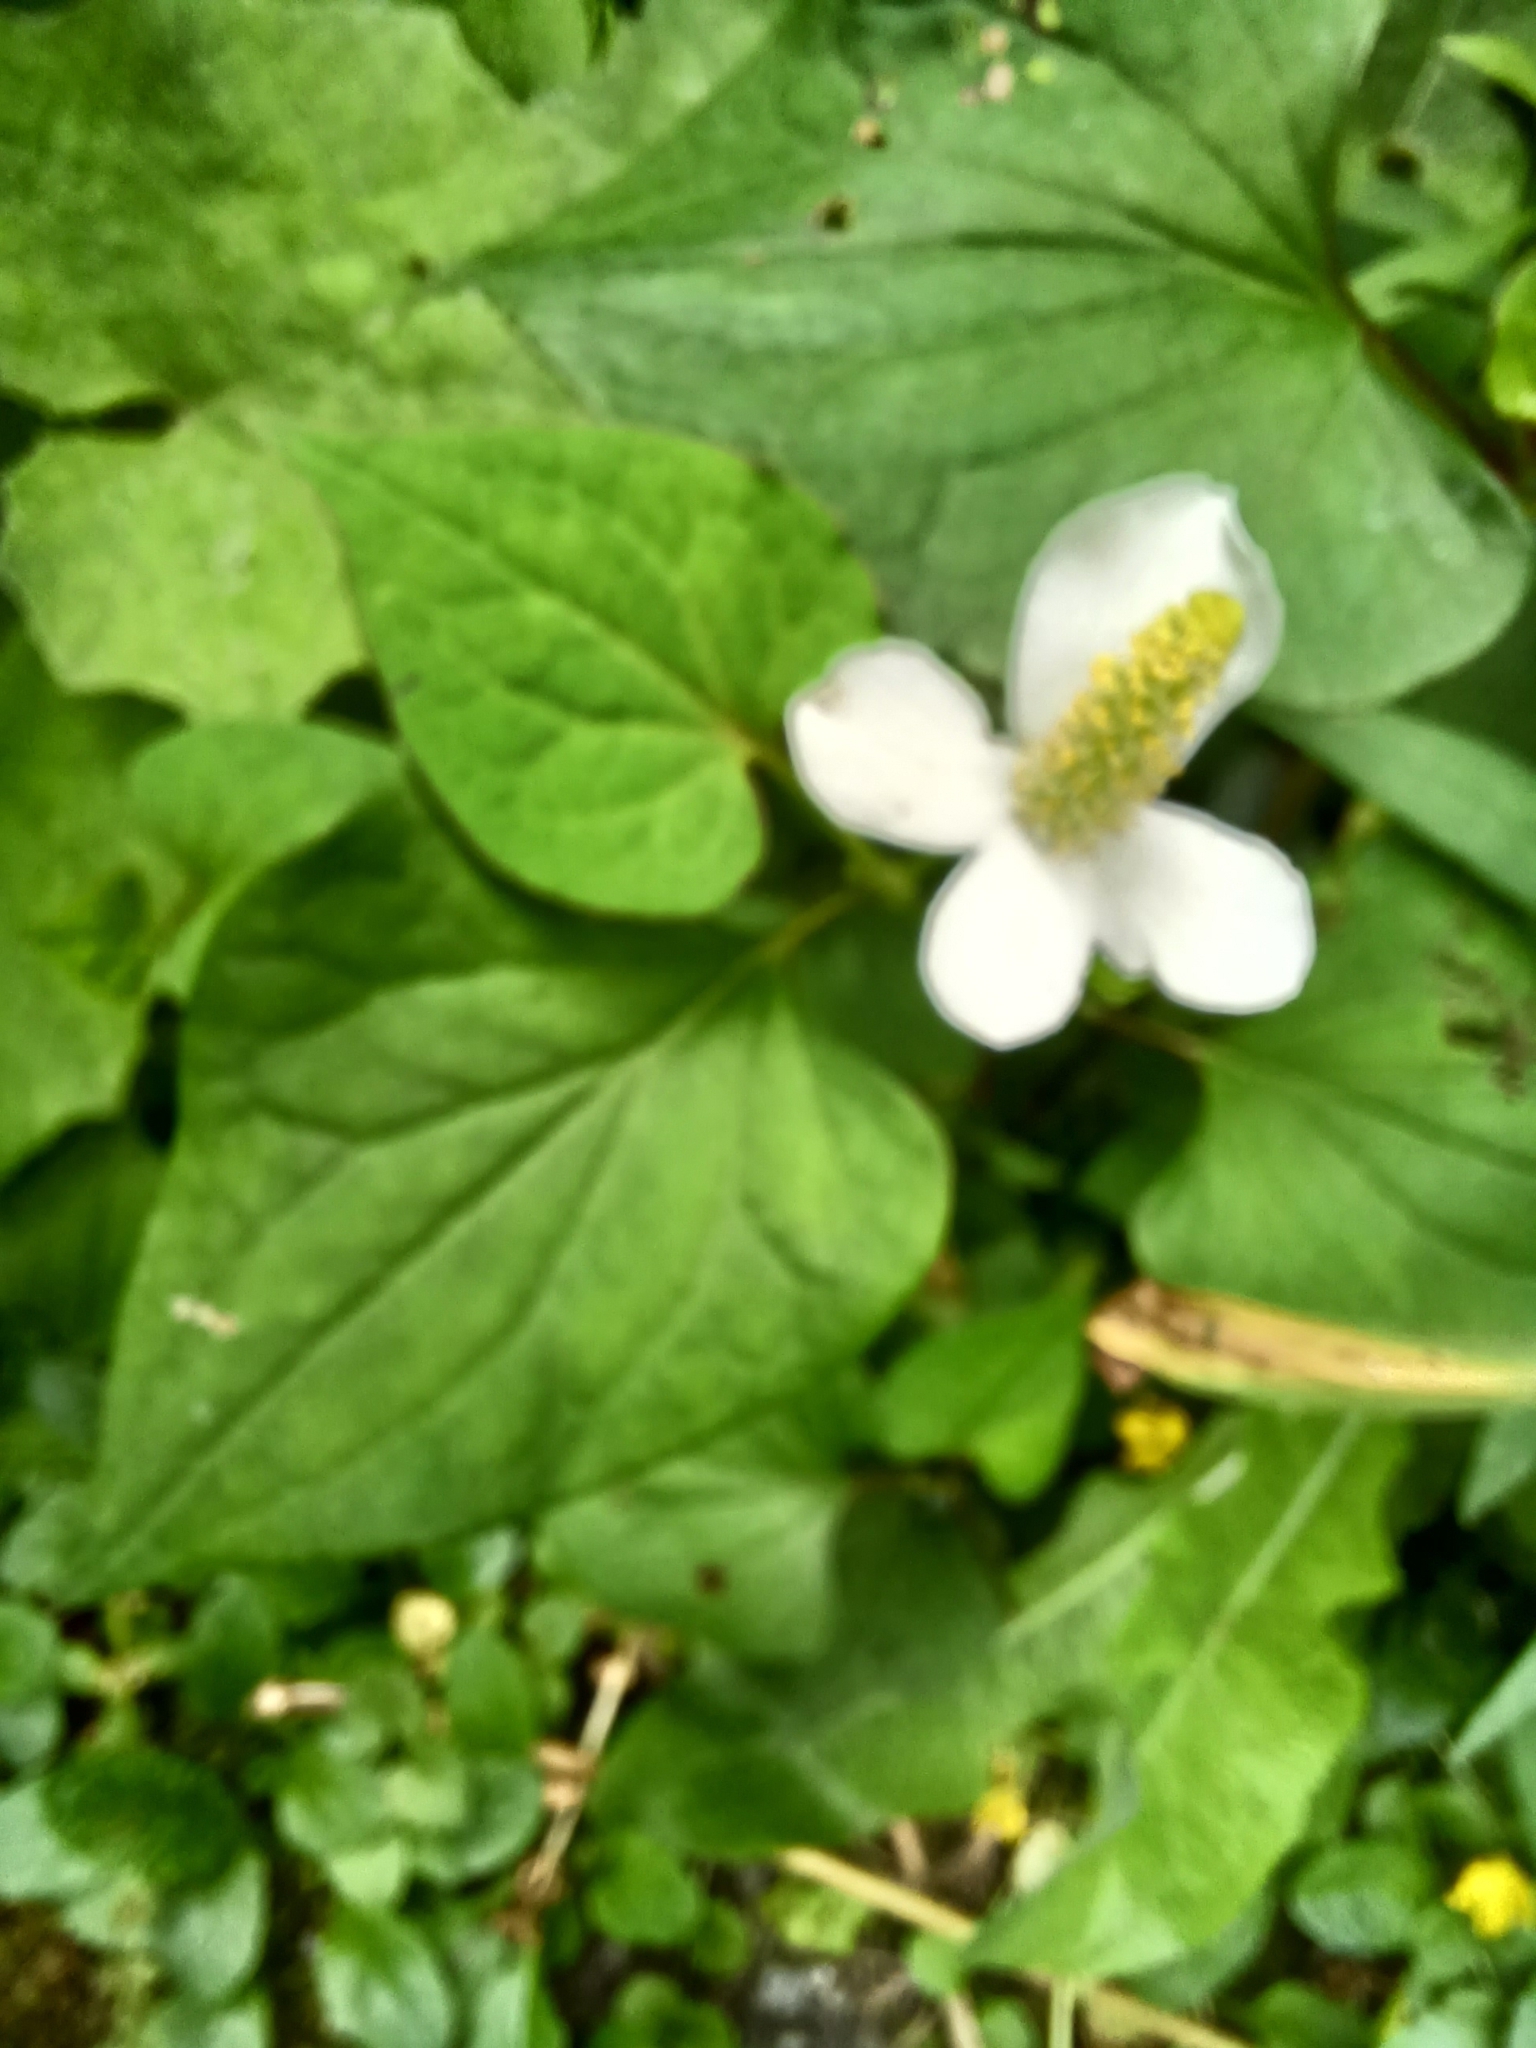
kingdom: Plantae
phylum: Tracheophyta
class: Magnoliopsida
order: Piperales
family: Saururaceae
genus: Houttuynia
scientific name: Houttuynia cordata
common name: Chameleon
